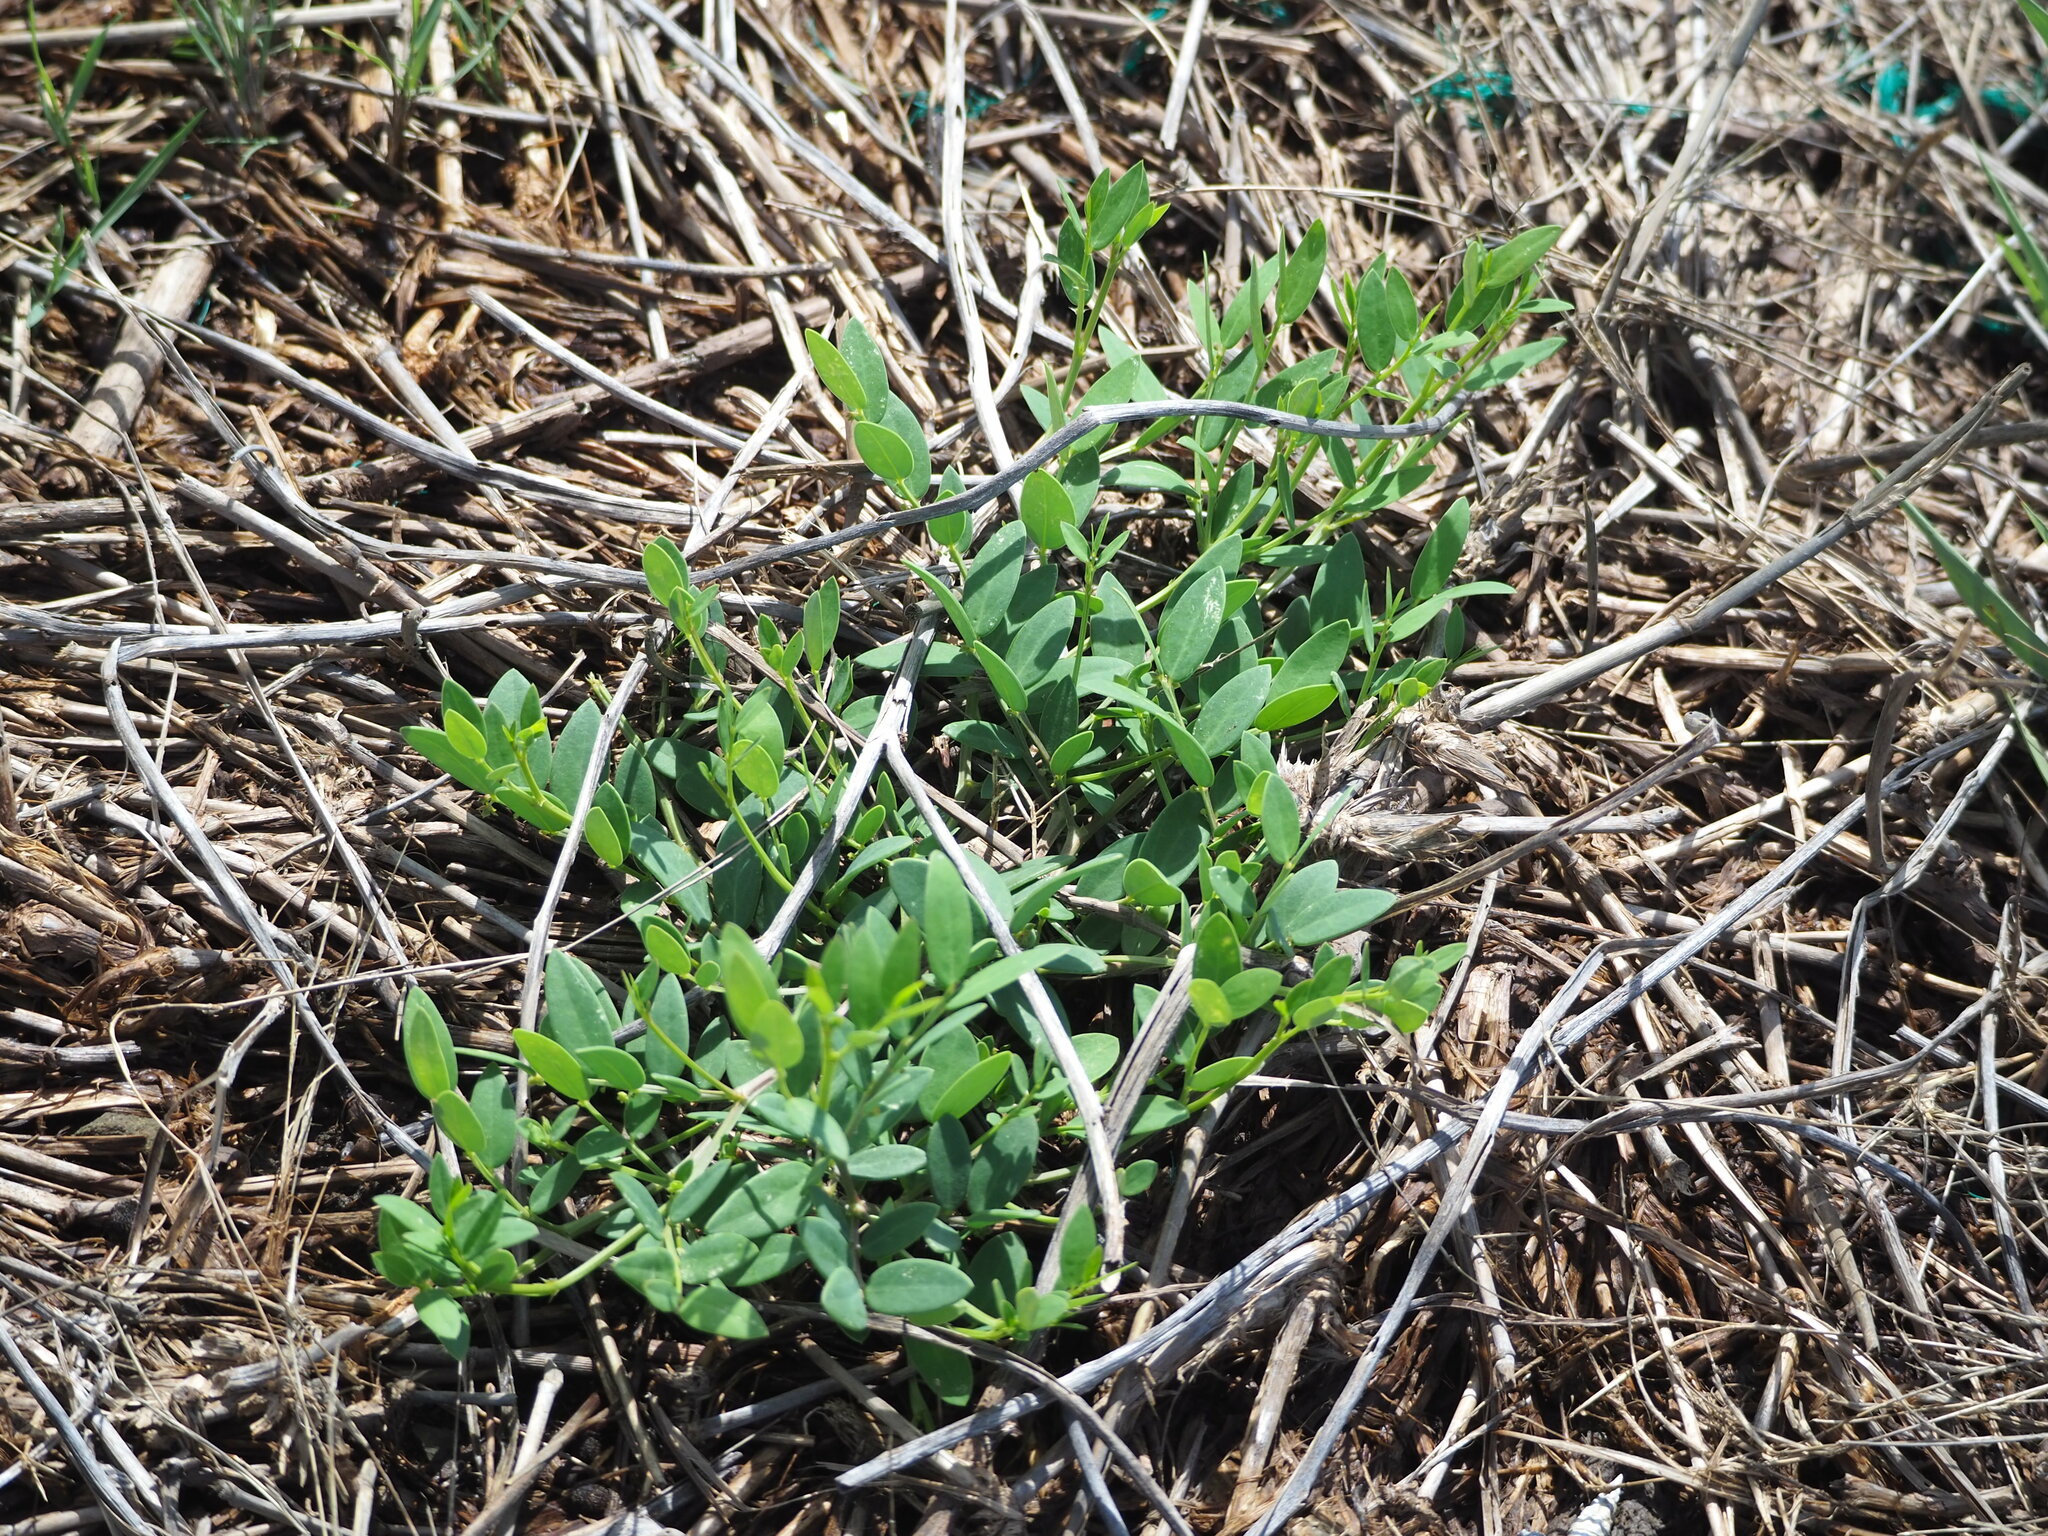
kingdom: Plantae
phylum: Tracheophyta
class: Magnoliopsida
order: Malpighiales
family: Phyllanthaceae
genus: Synostemon
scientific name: Synostemon bacciformis
